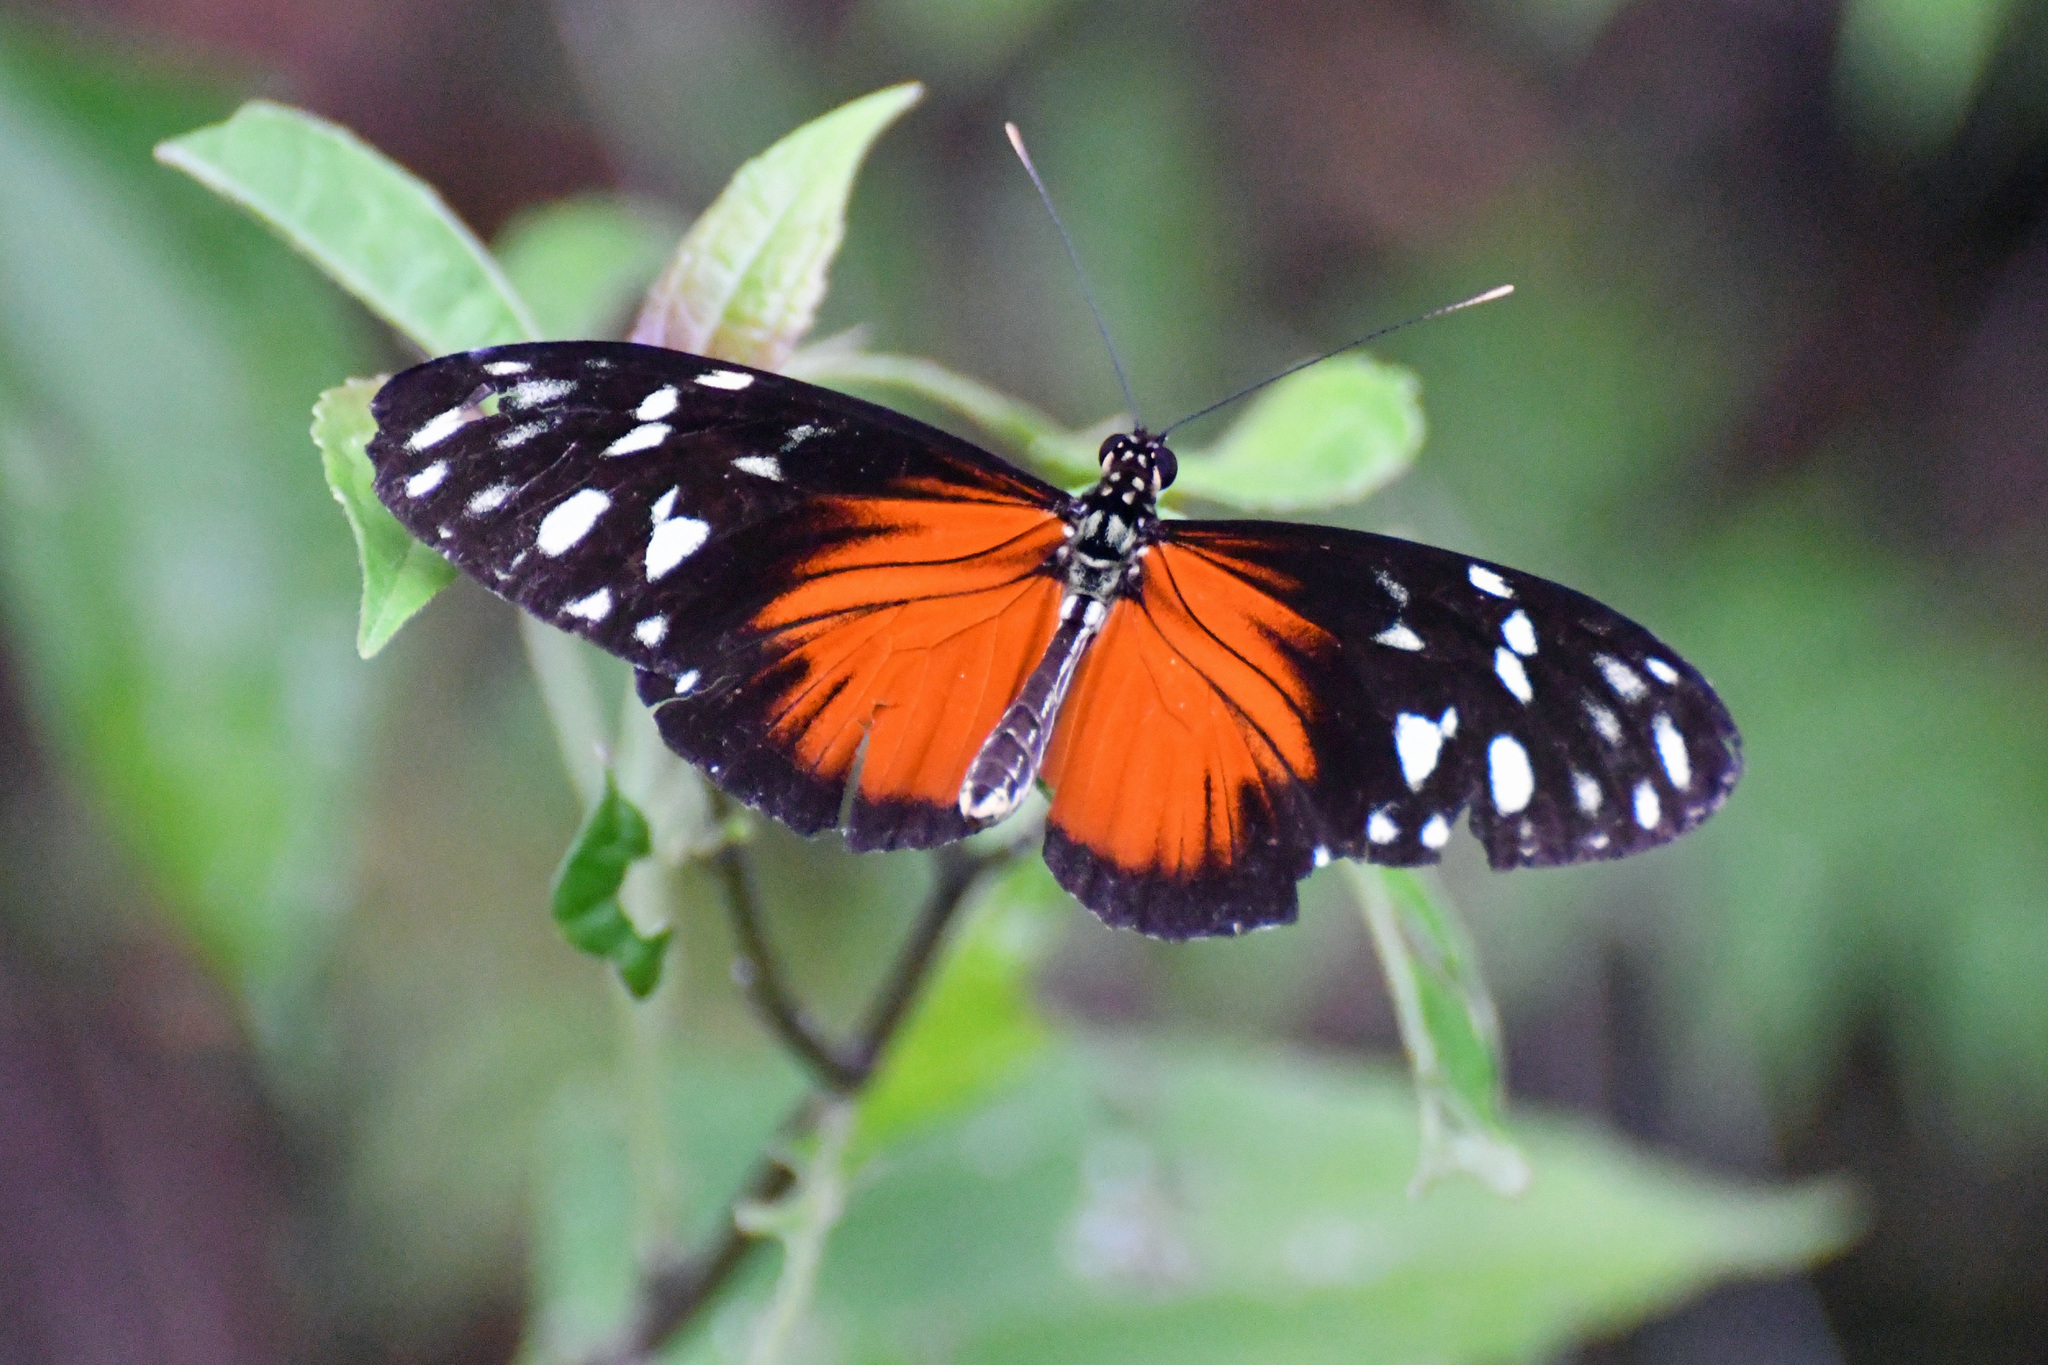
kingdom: Animalia
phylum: Arthropoda
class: Insecta
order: Lepidoptera
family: Nymphalidae
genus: Heliconius
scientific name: Heliconius hecale
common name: Tiger longwing
